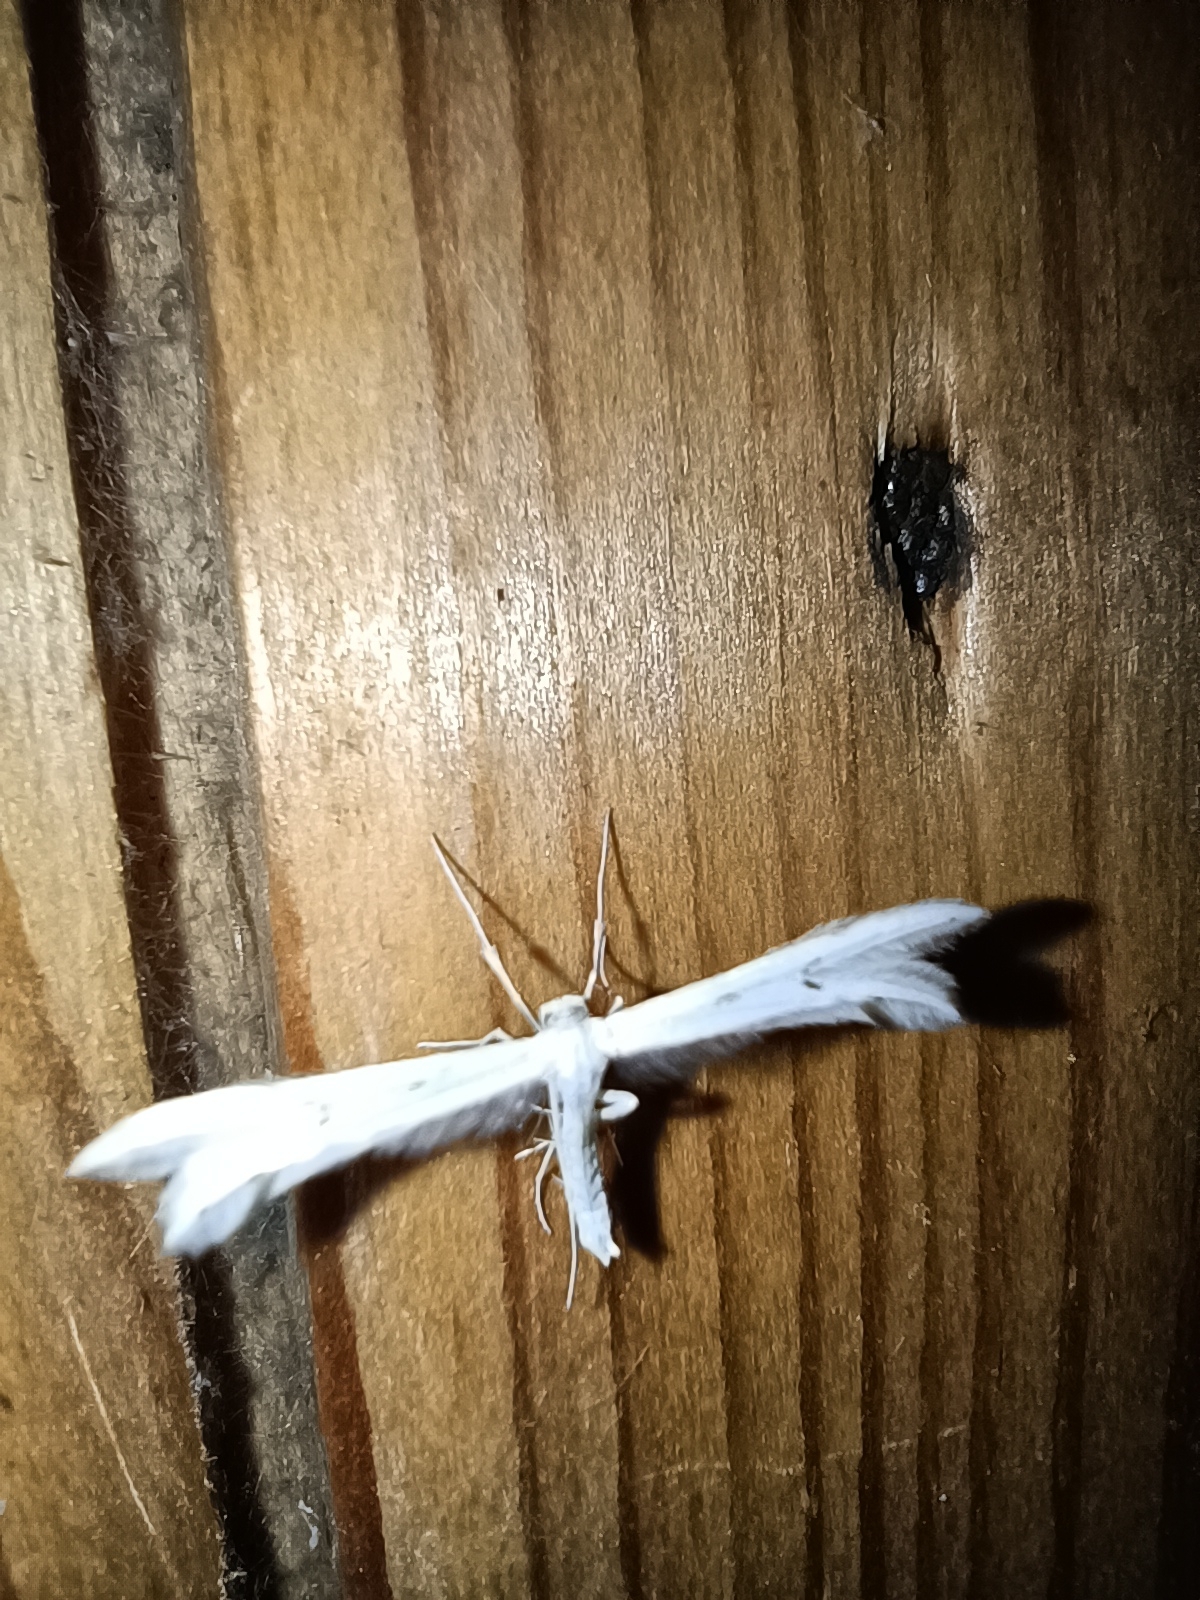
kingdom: Animalia
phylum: Arthropoda
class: Insecta
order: Lepidoptera
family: Pterophoridae
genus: Porrittia
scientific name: Porrittia galactodactyla
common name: Spotted white plume
